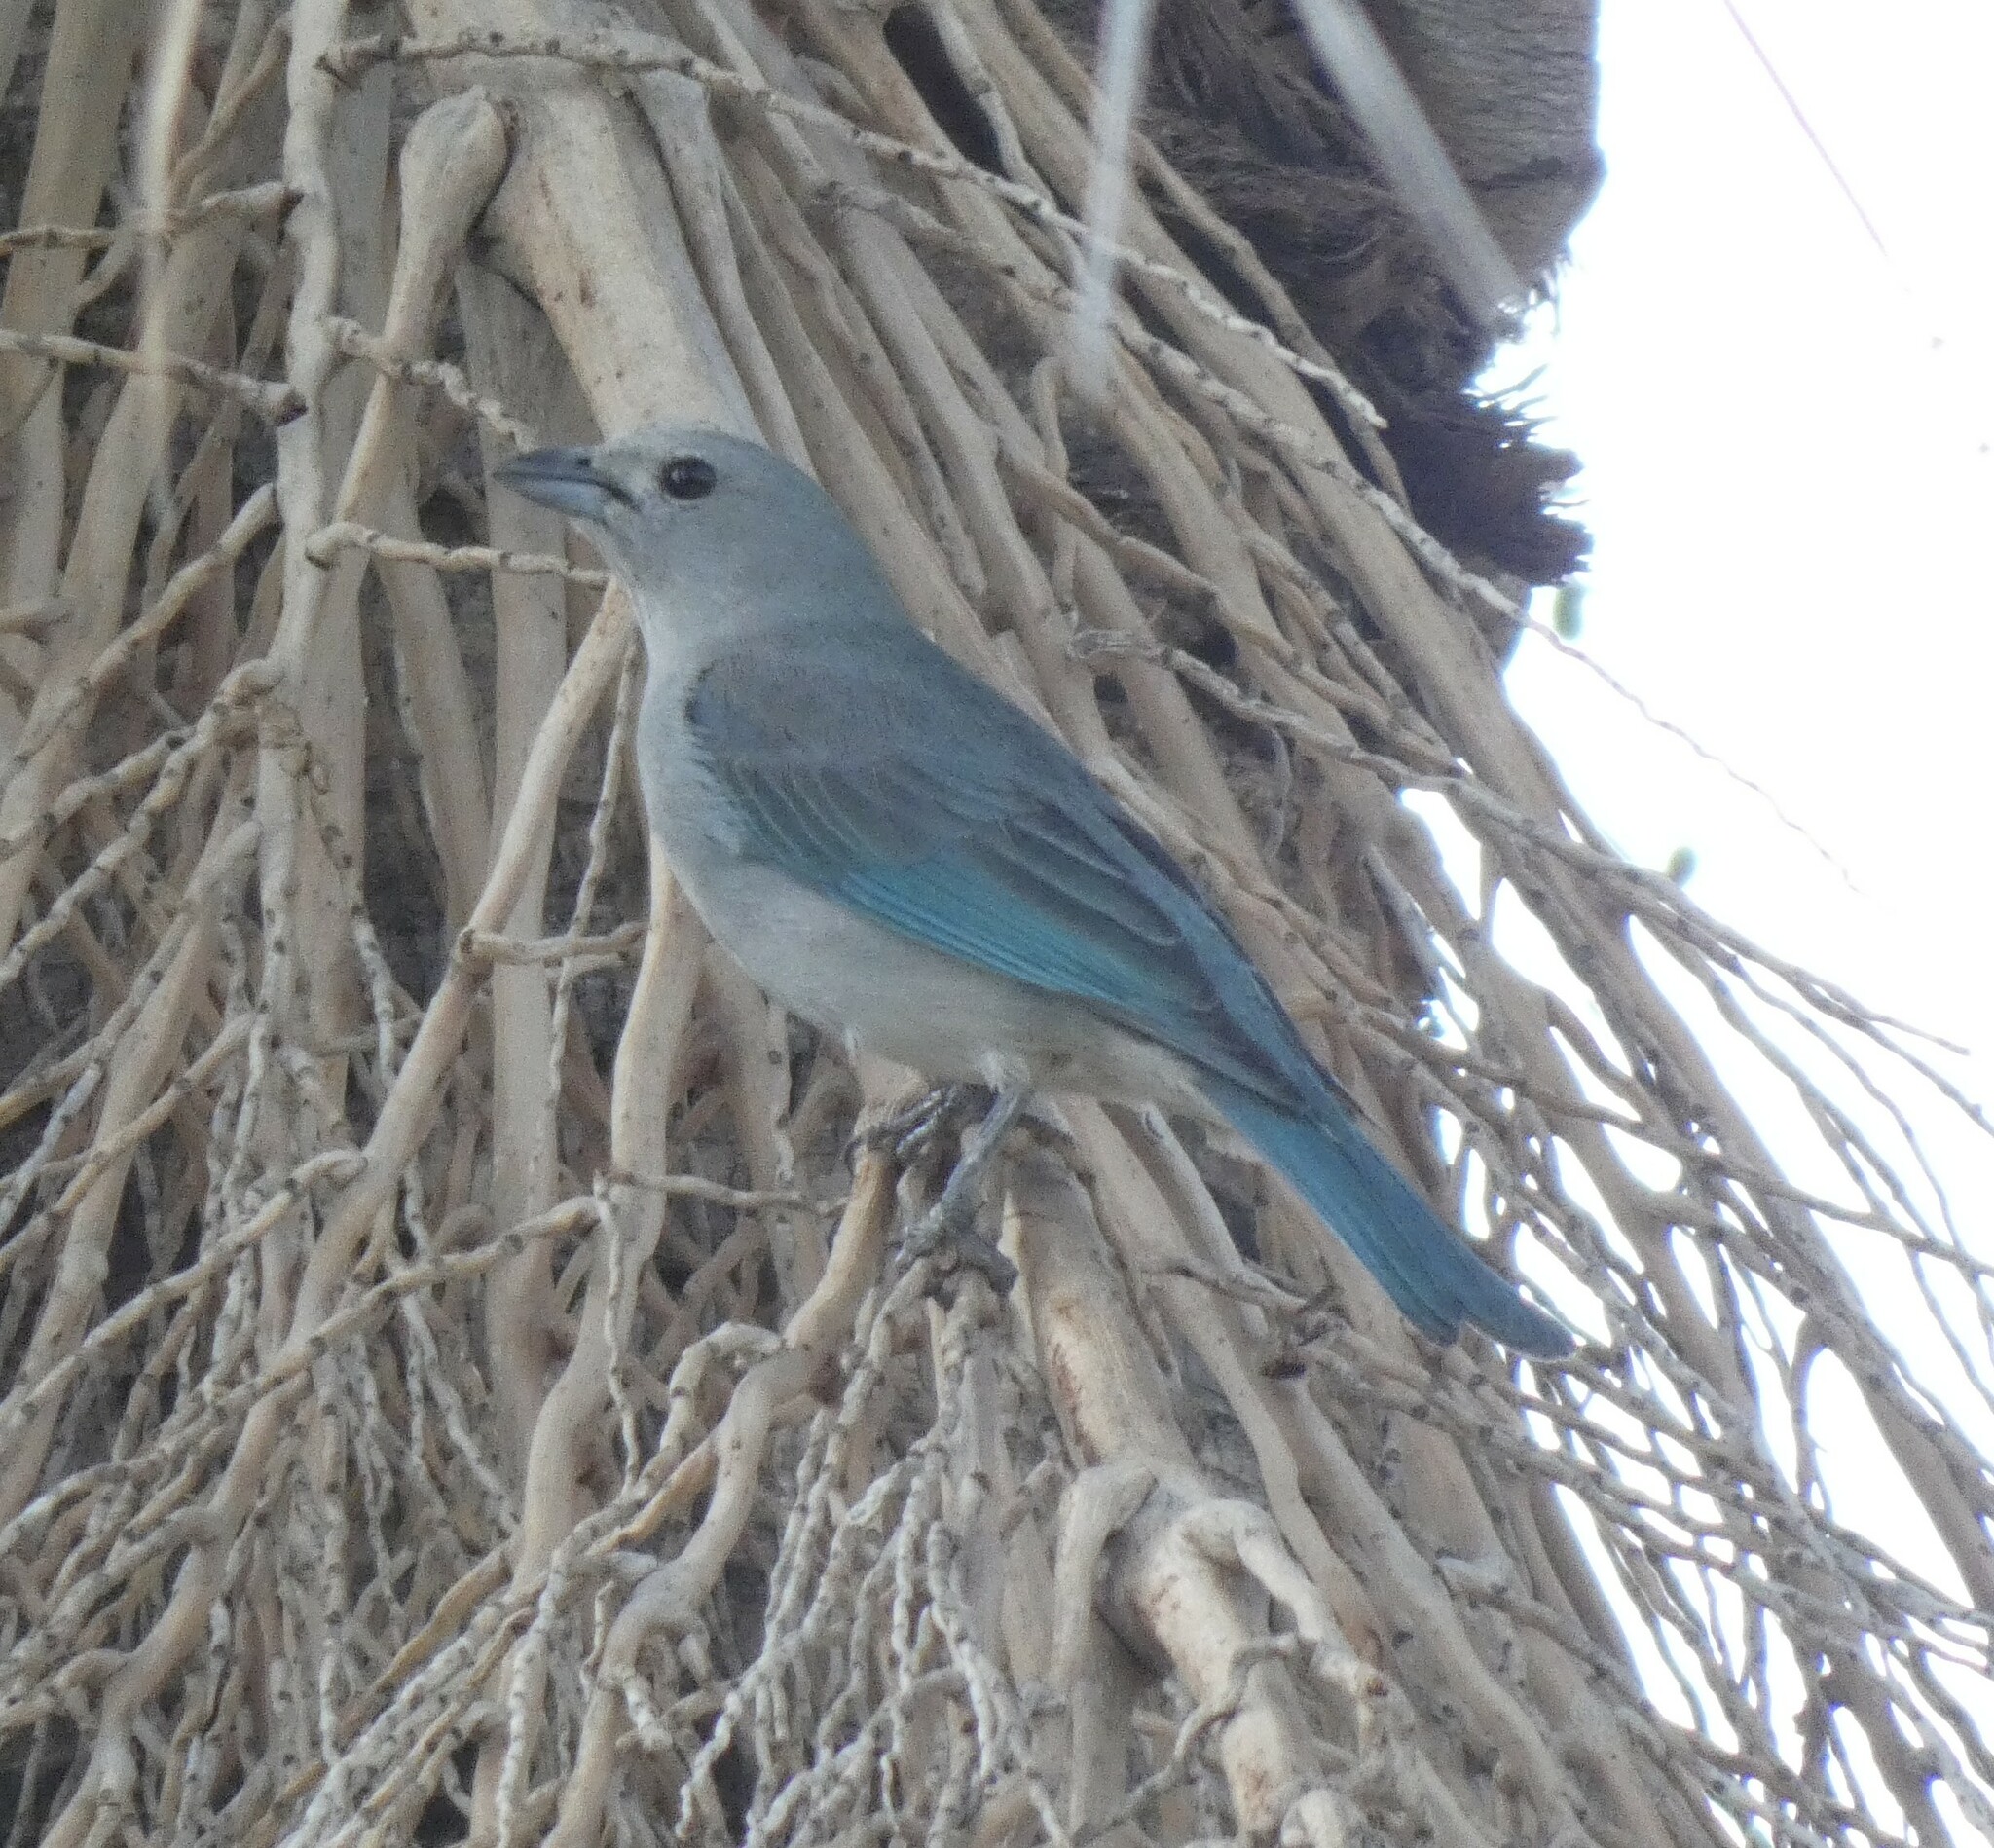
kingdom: Animalia
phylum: Chordata
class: Aves
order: Passeriformes
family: Thraupidae
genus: Thraupis
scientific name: Thraupis sayaca
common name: Sayaca tanager
